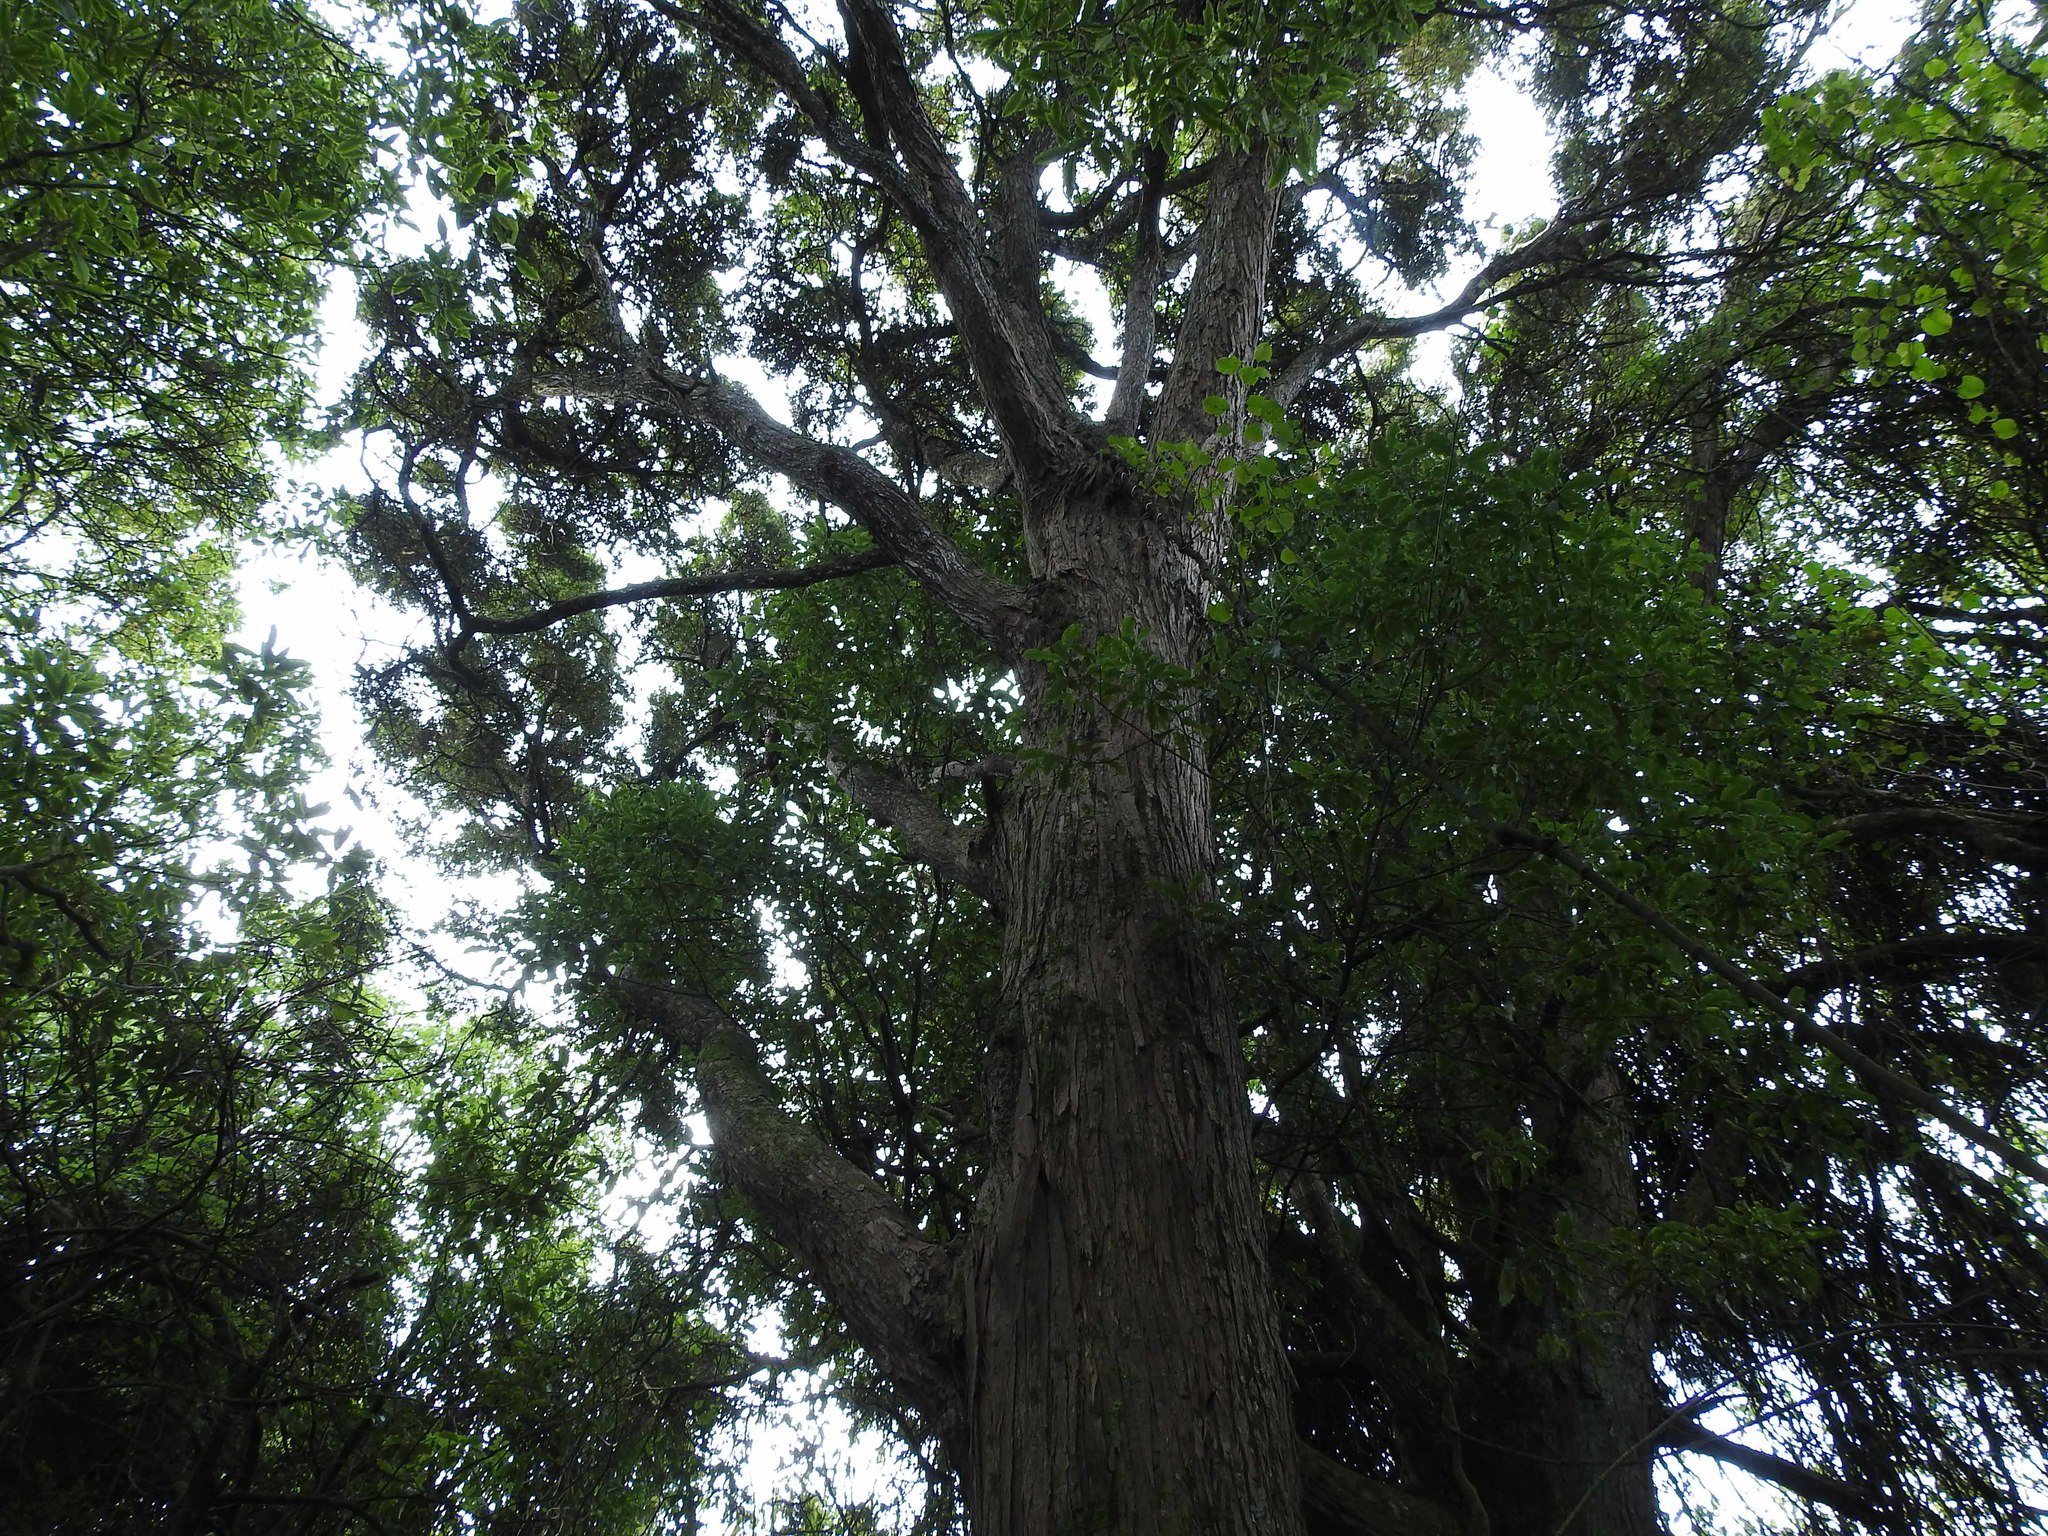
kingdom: Plantae
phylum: Tracheophyta
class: Pinopsida
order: Pinales
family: Podocarpaceae
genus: Podocarpus
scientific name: Podocarpus totara
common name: Totara
